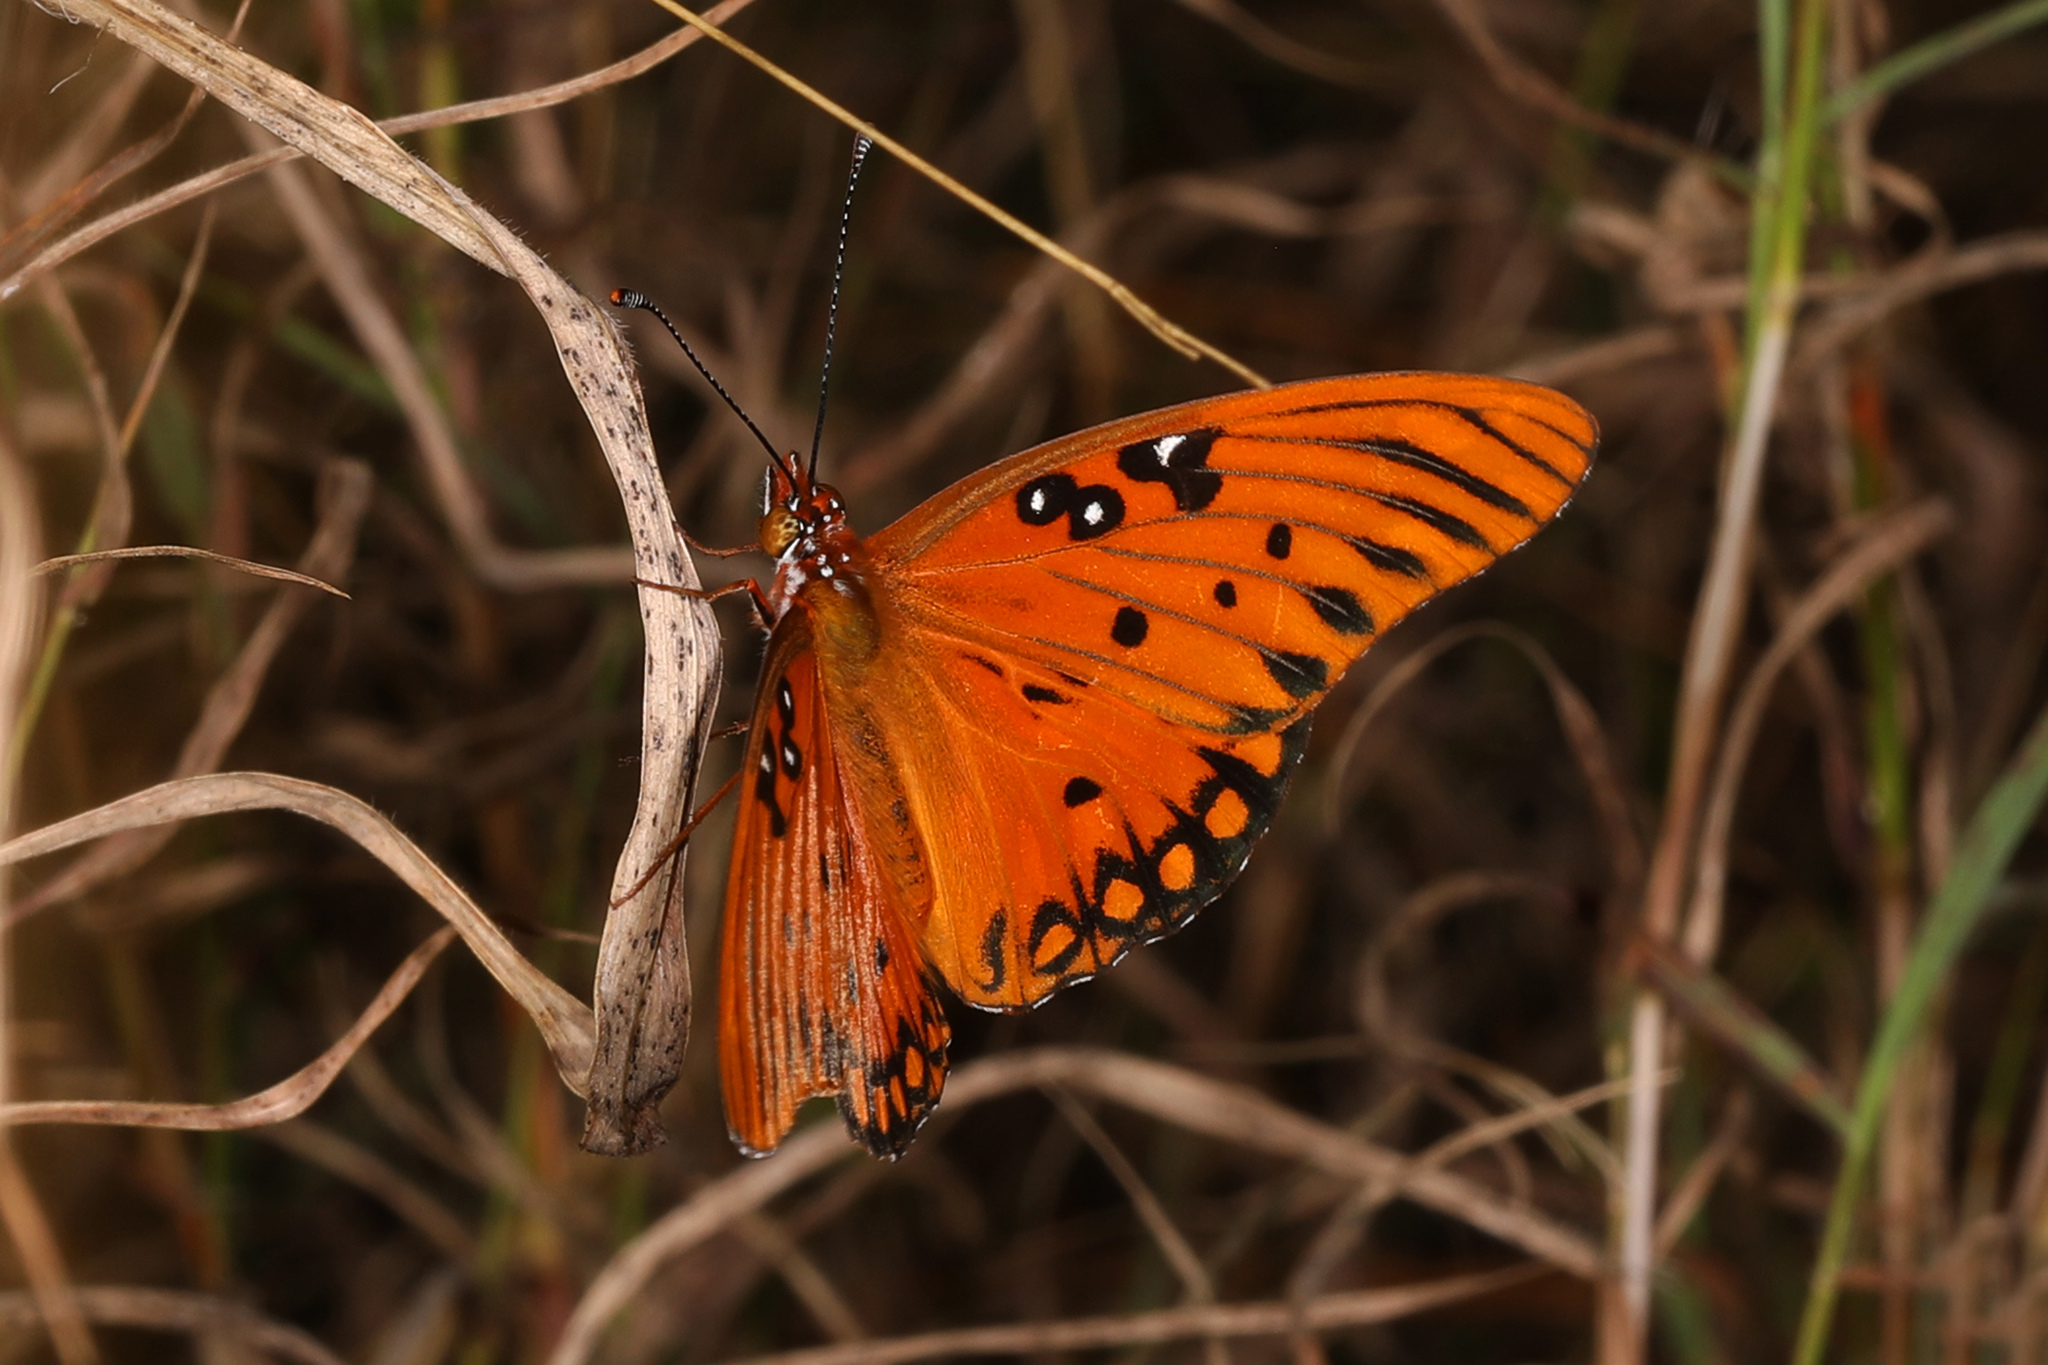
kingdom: Animalia
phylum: Arthropoda
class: Insecta
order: Lepidoptera
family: Nymphalidae
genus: Dione
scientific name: Dione vanillae
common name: Gulf fritillary
